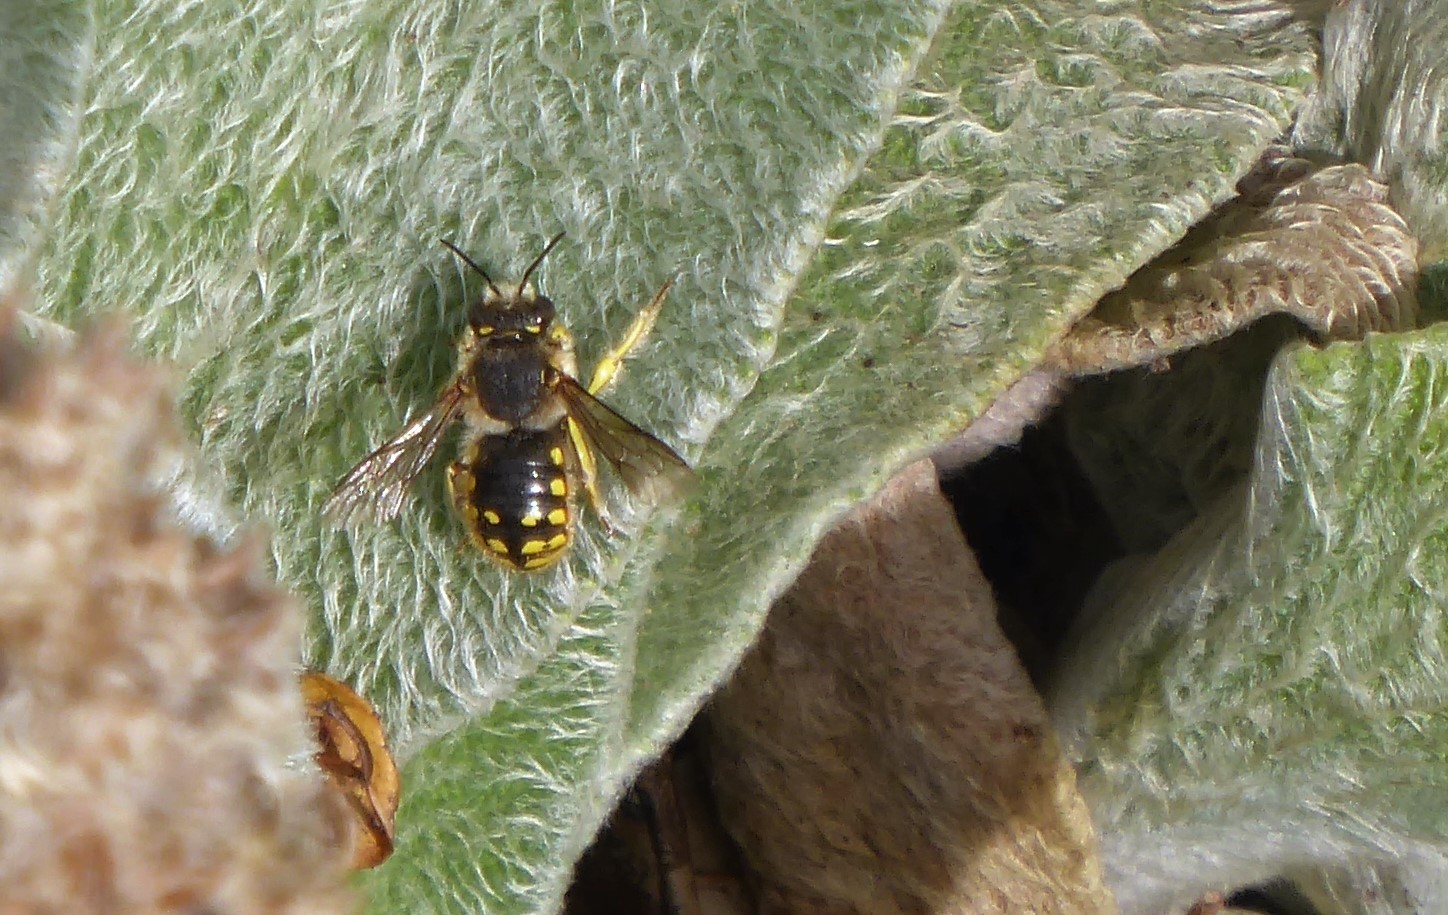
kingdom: Animalia
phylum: Arthropoda
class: Insecta
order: Hymenoptera
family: Megachilidae
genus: Anthidium
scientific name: Anthidium manicatum
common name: Wool carder bee
